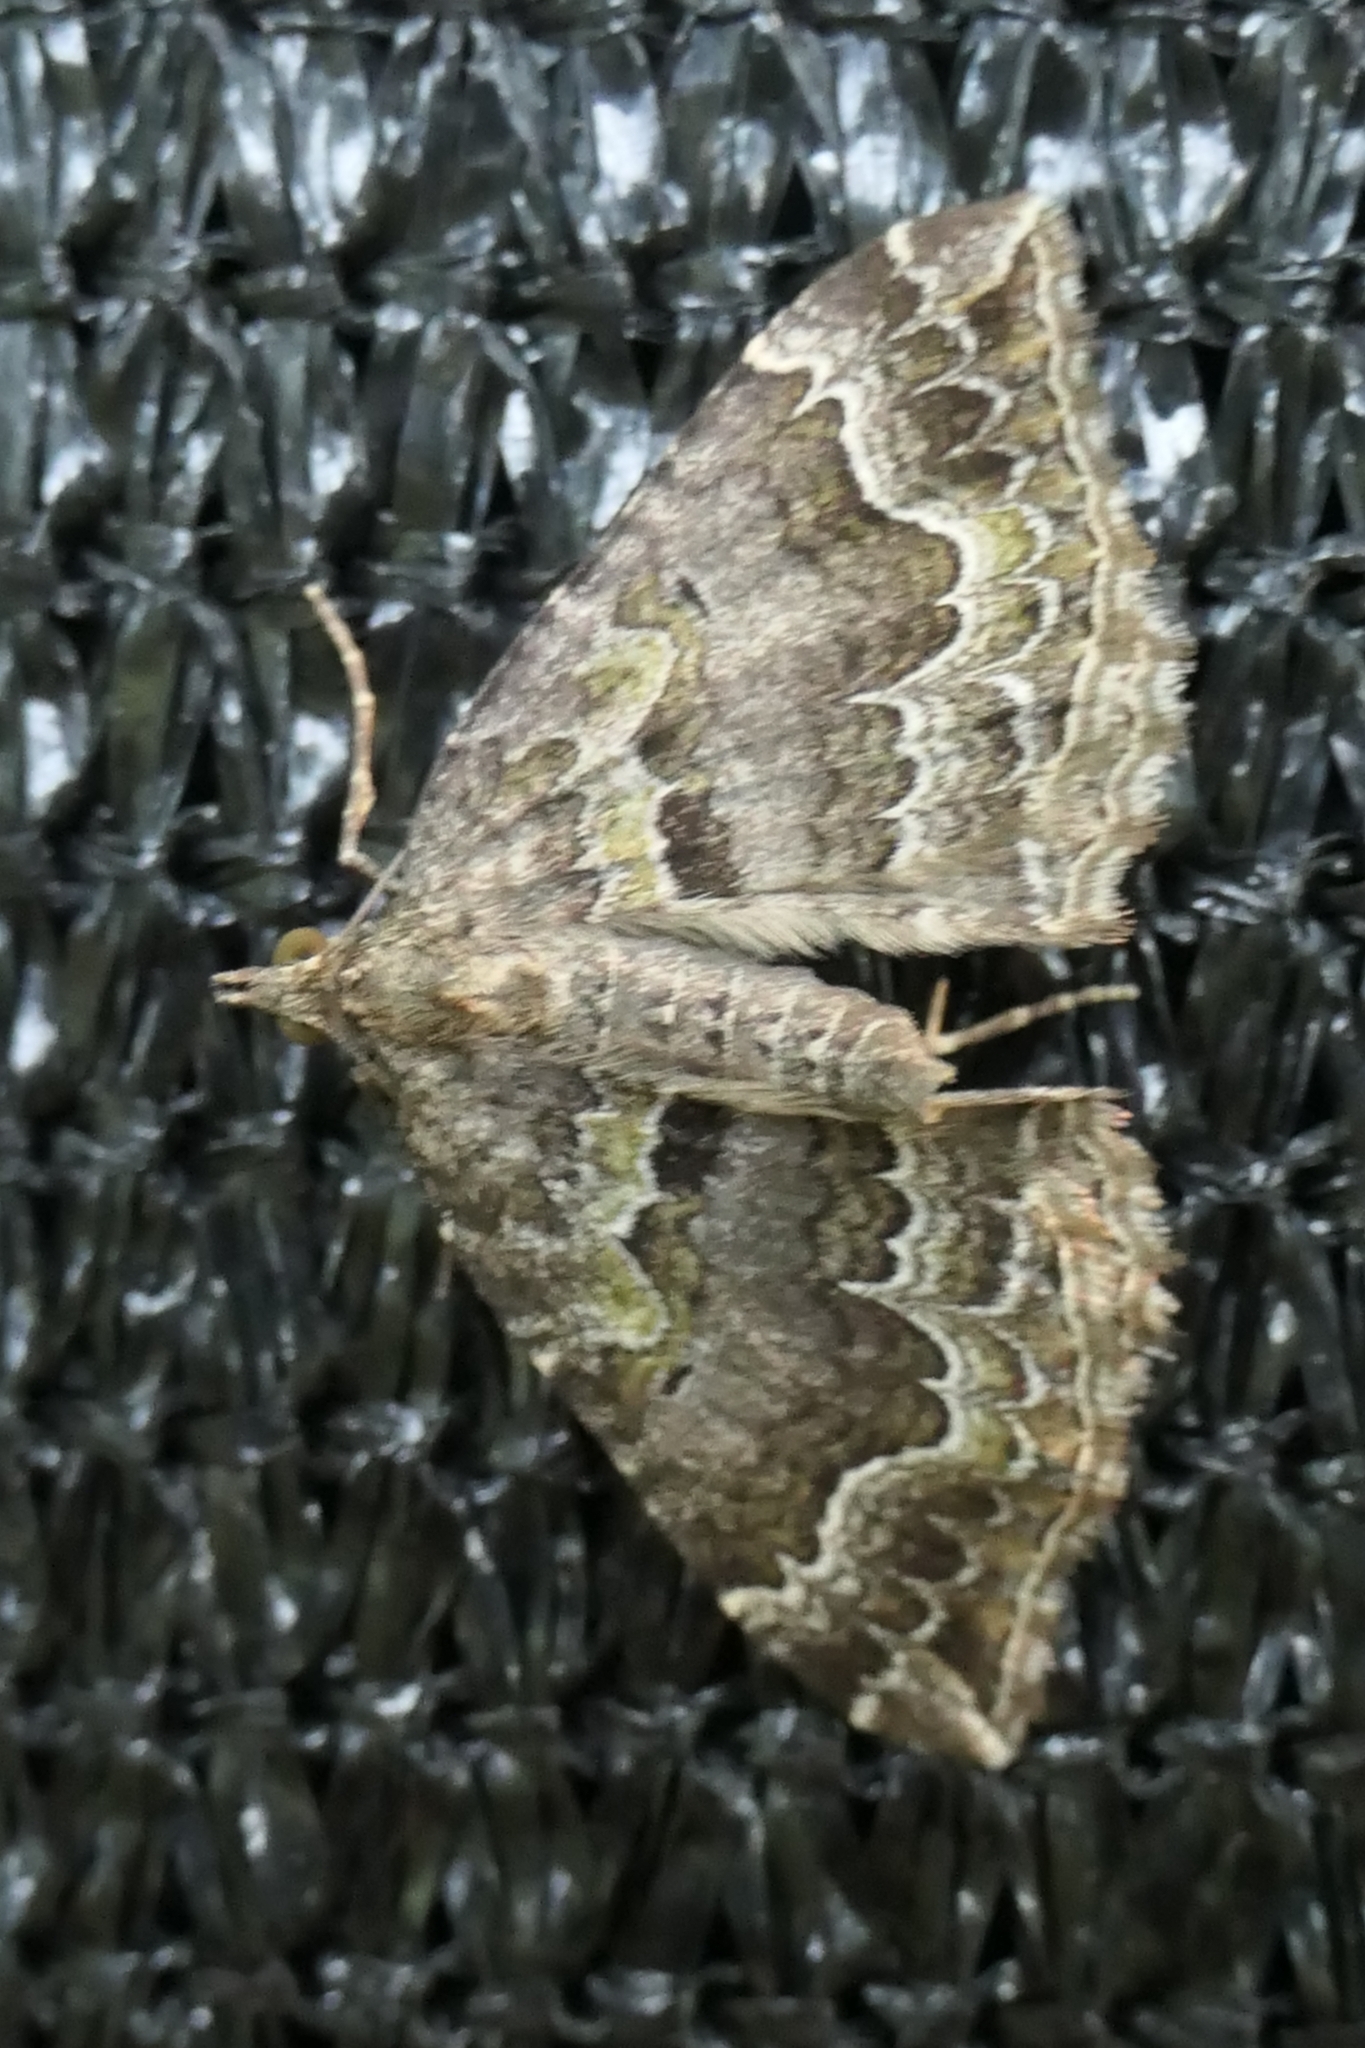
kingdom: Animalia
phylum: Arthropoda
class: Insecta
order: Lepidoptera
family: Geometridae
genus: Hydriomena
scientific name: Hydriomena rixata
